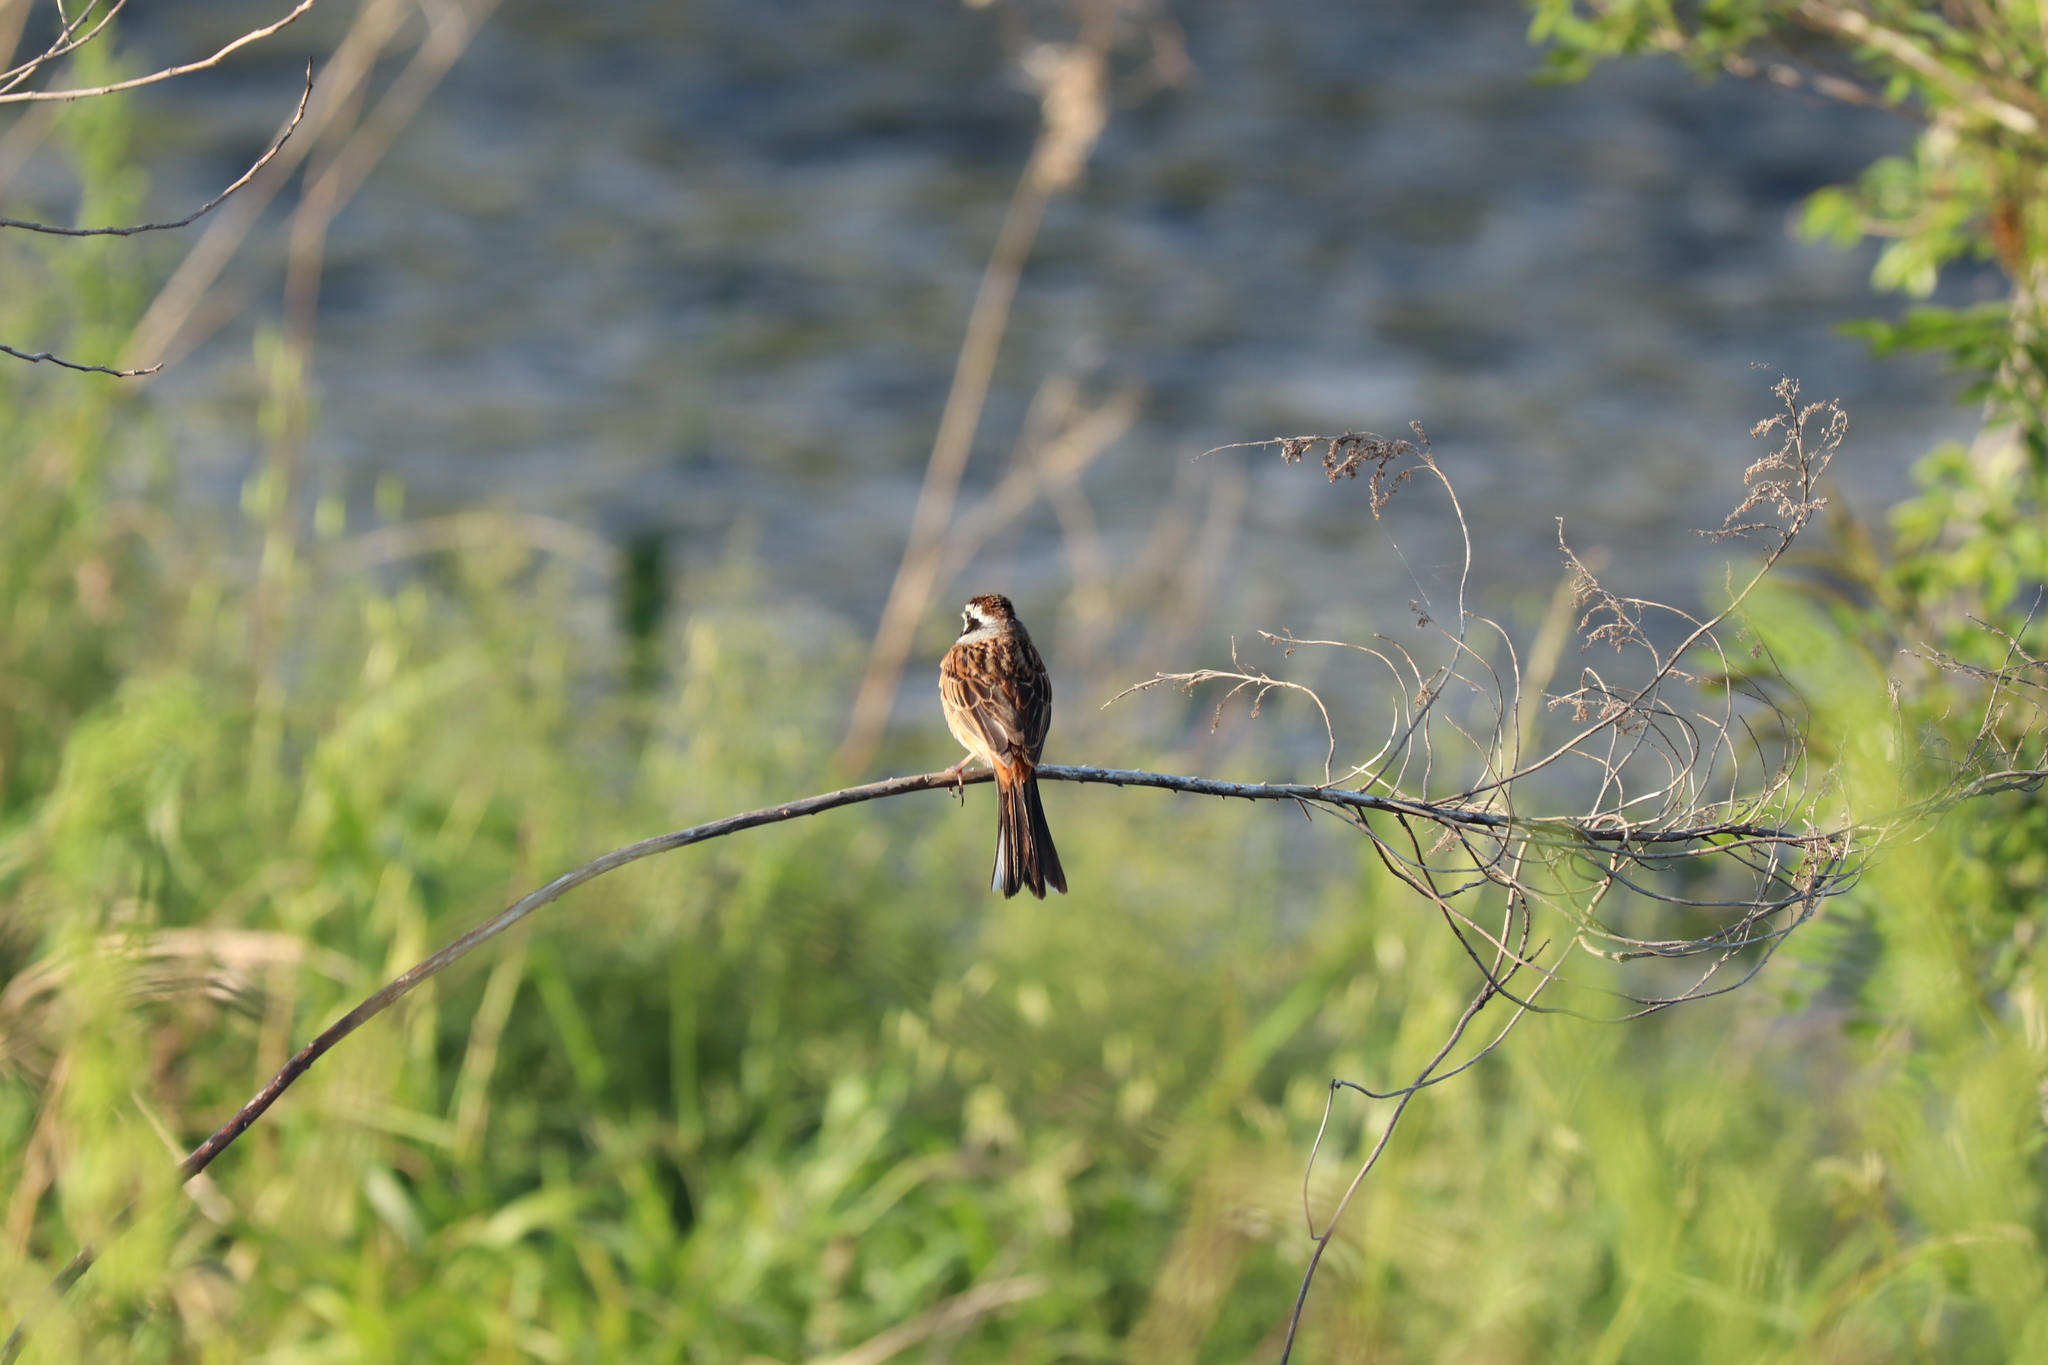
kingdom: Animalia
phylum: Chordata
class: Aves
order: Passeriformes
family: Emberizidae
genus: Emberiza
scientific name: Emberiza cioides
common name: Meadow bunting
